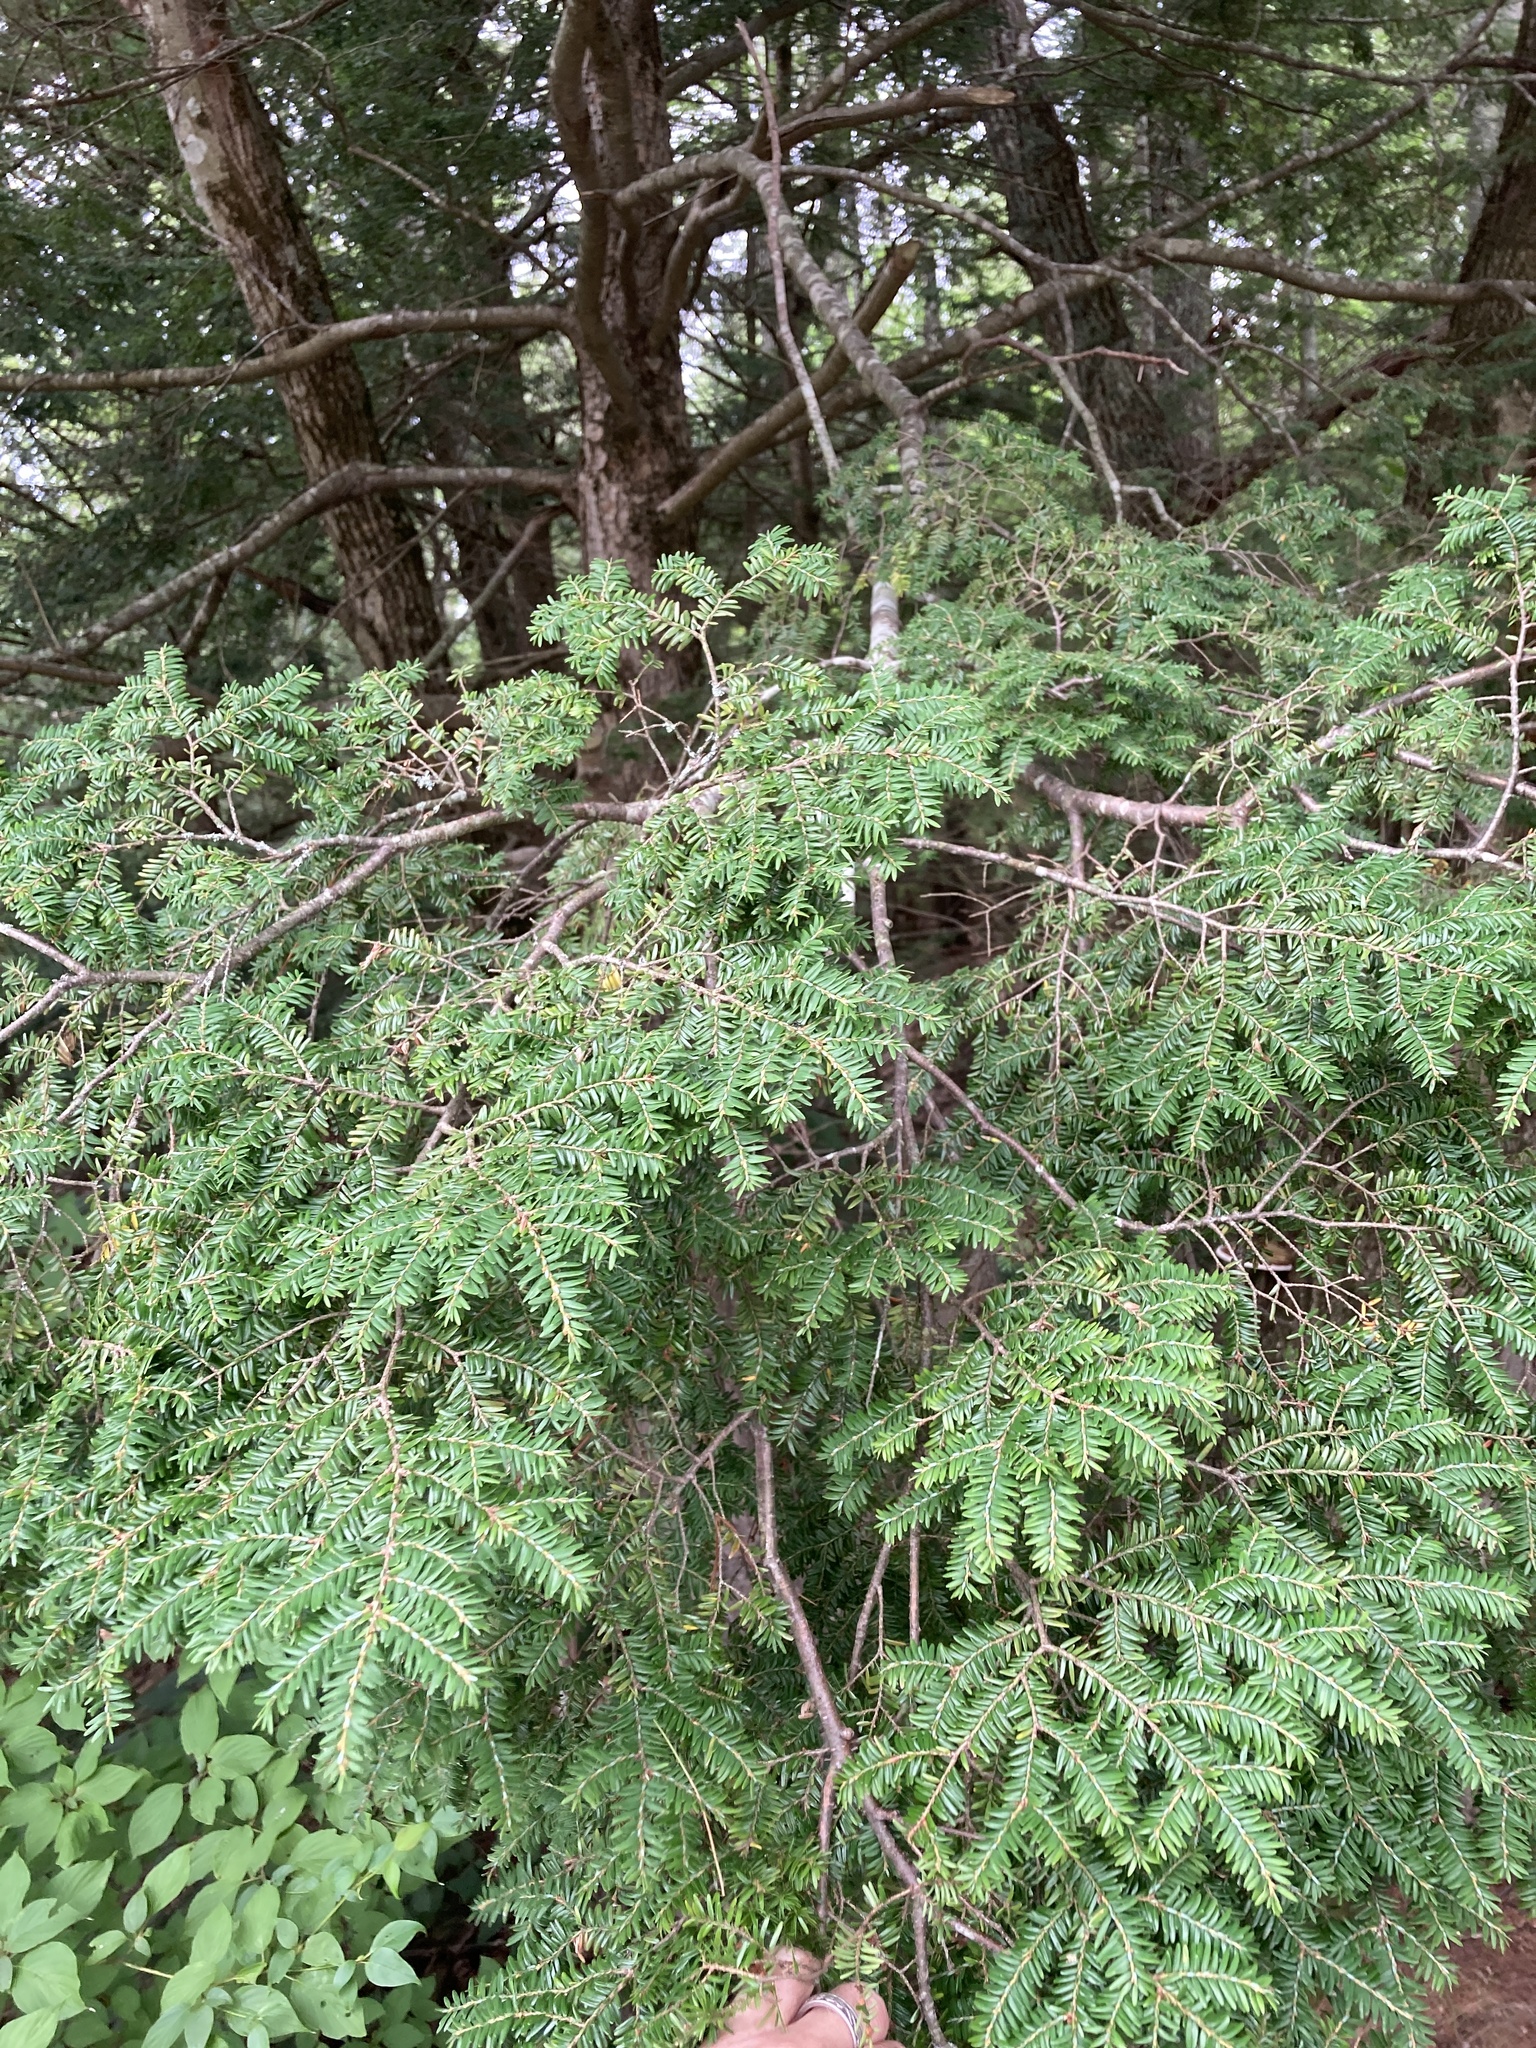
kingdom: Plantae
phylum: Tracheophyta
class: Pinopsida
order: Pinales
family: Pinaceae
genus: Tsuga
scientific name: Tsuga canadensis
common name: Eastern hemlock
